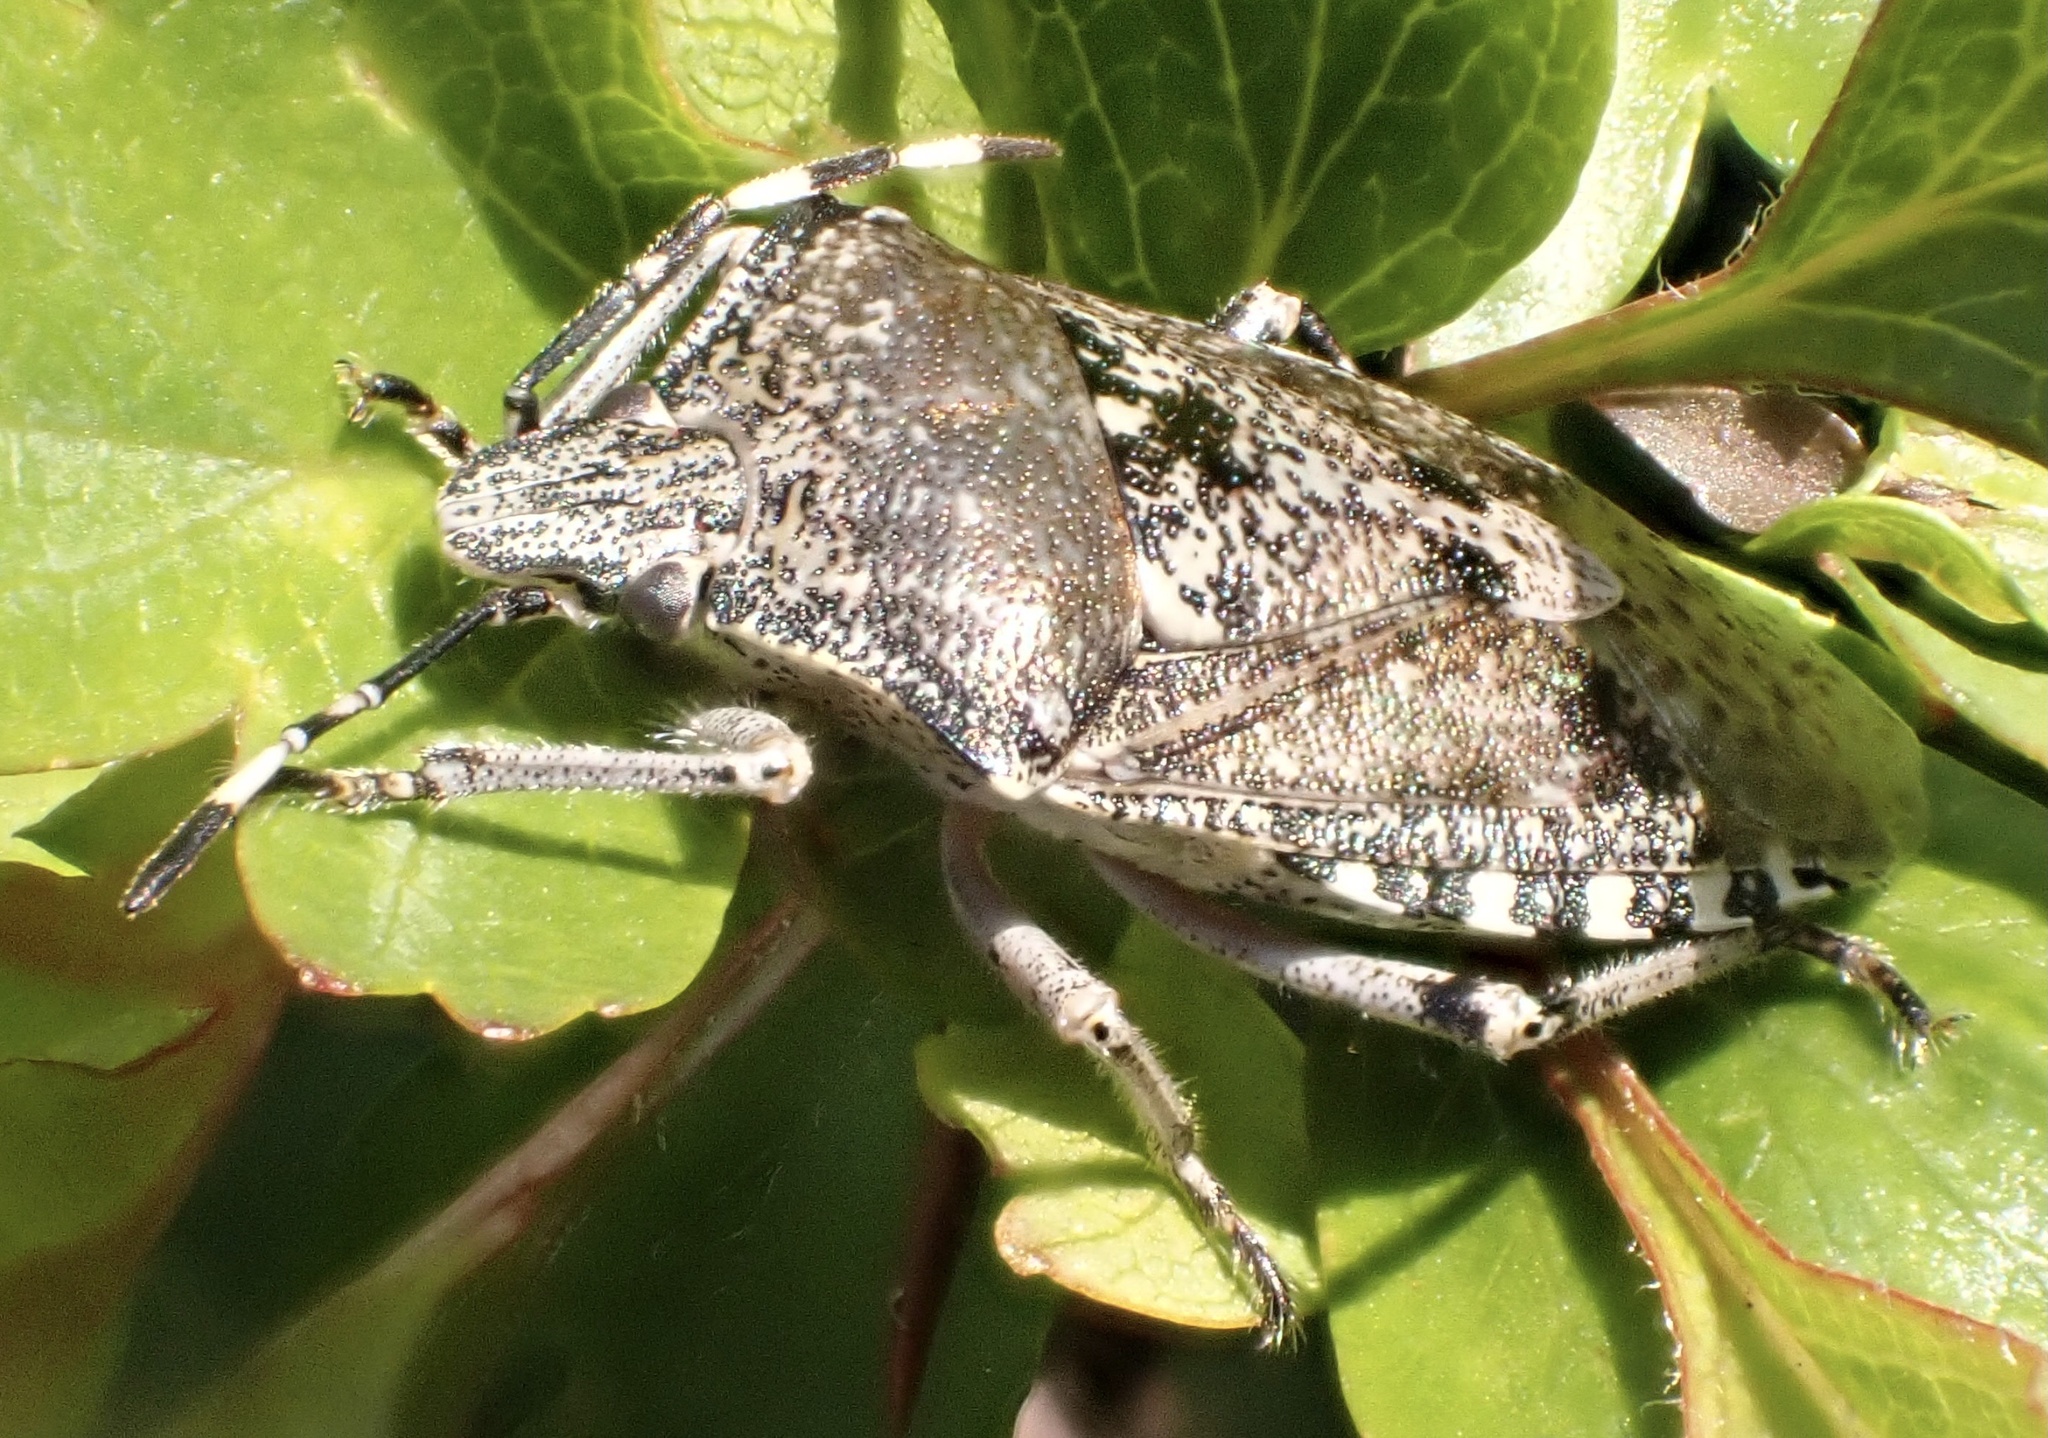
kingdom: Animalia
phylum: Arthropoda
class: Insecta
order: Hemiptera
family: Pentatomidae
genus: Rhaphigaster
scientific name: Rhaphigaster nebulosa
